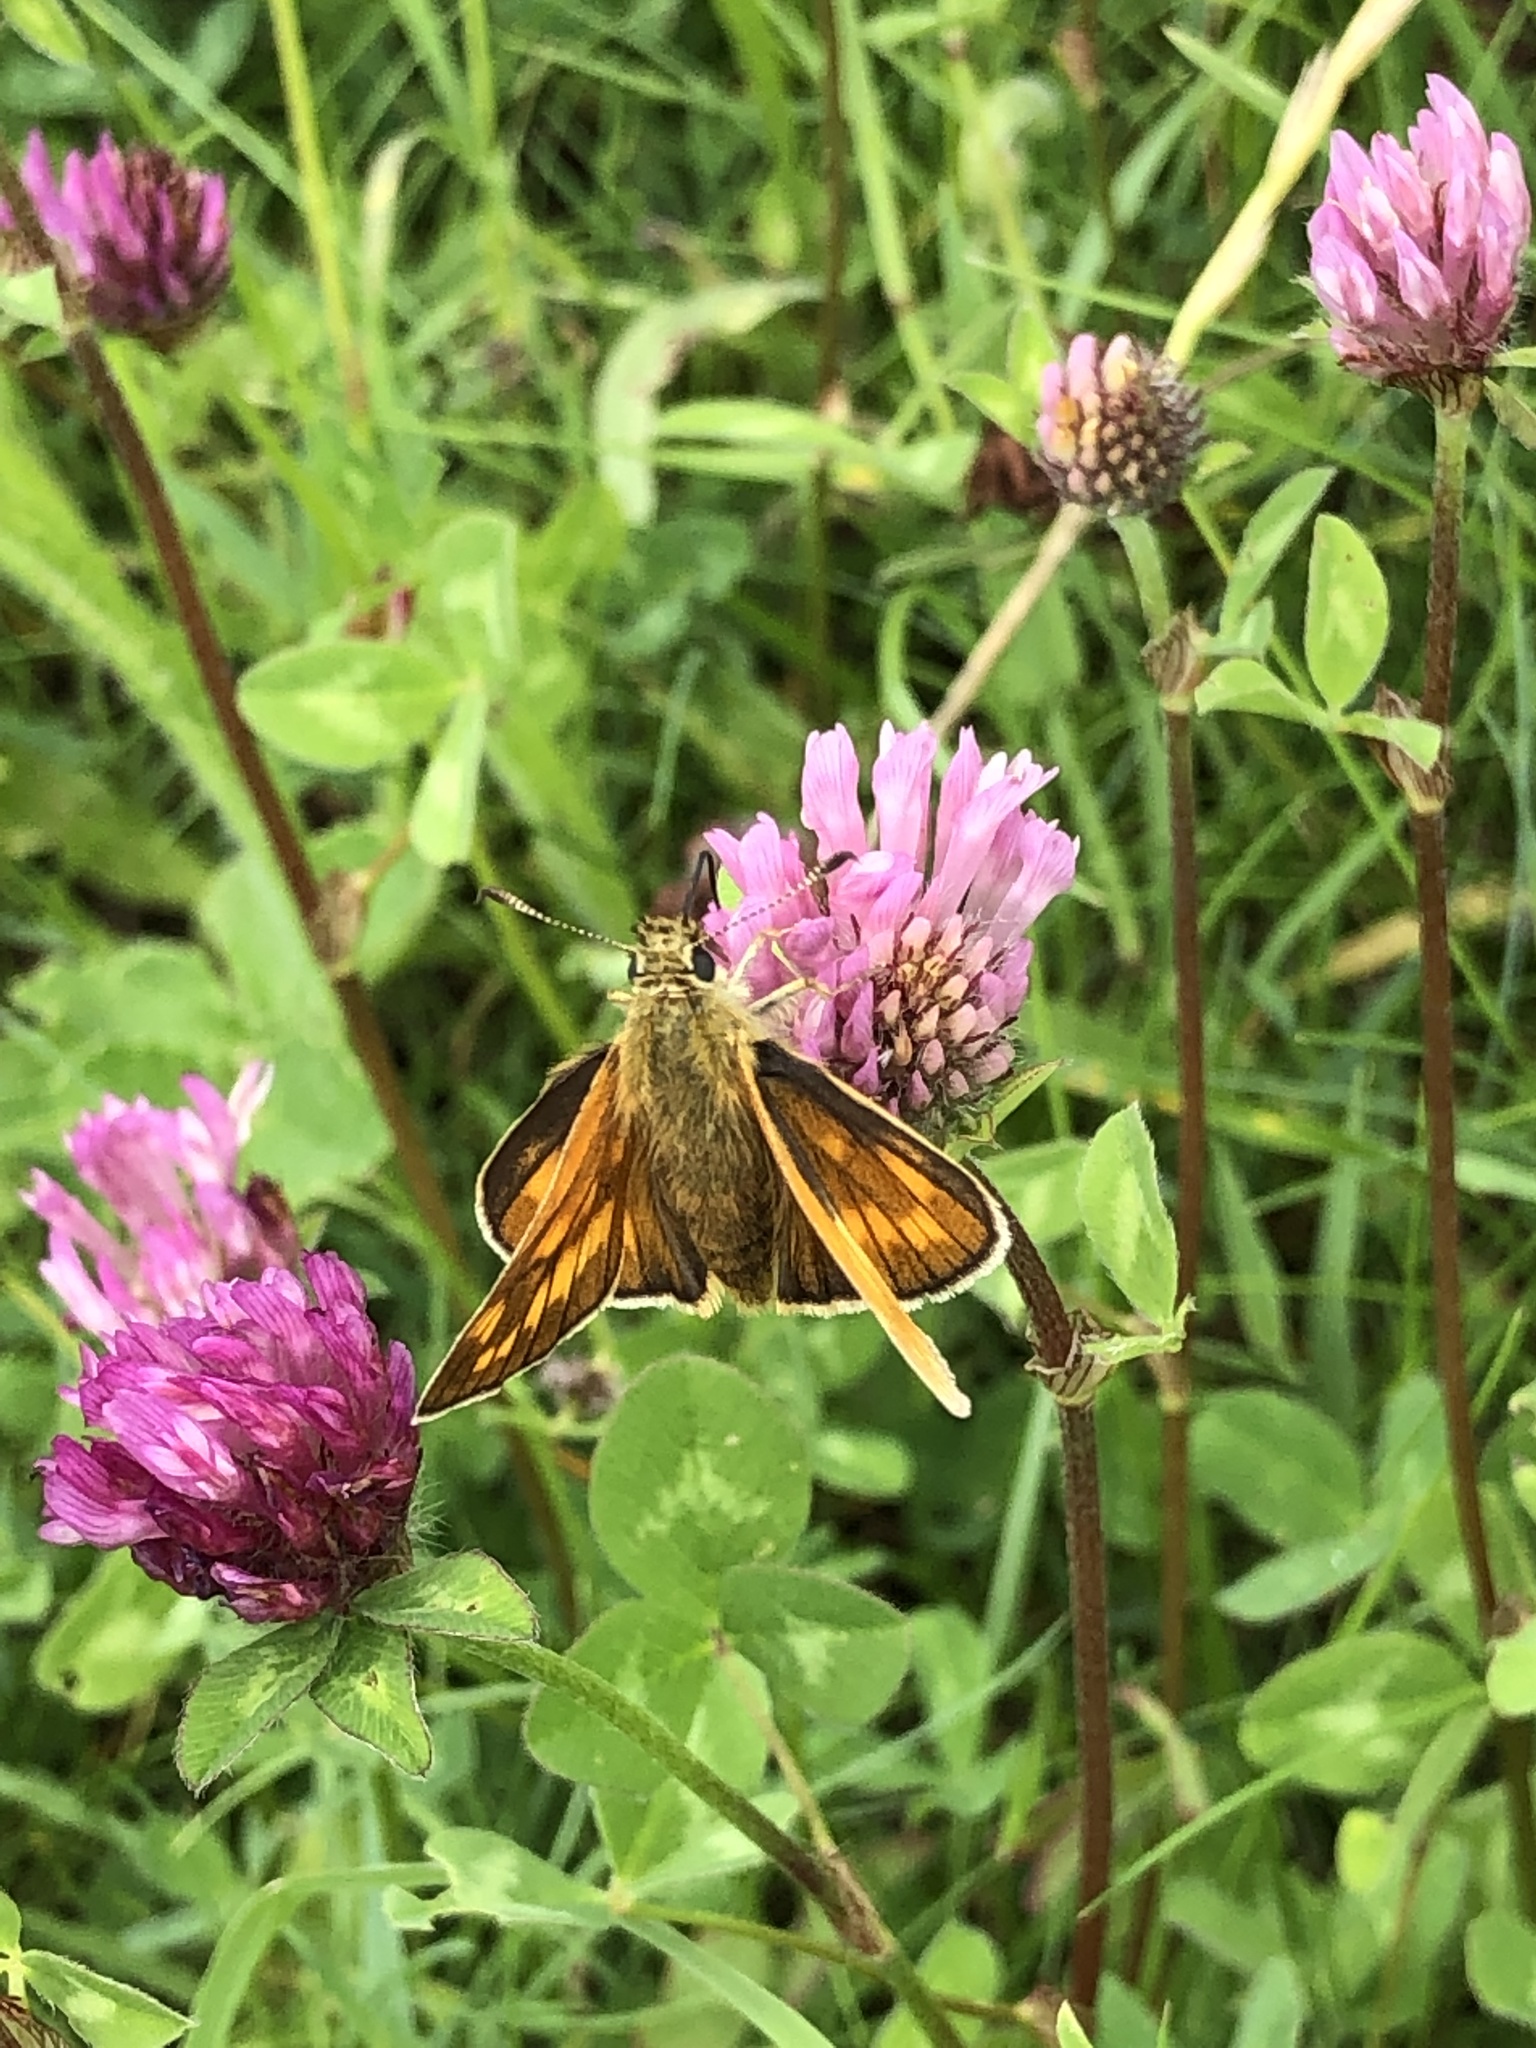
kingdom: Animalia
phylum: Arthropoda
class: Insecta
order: Lepidoptera
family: Hesperiidae
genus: Ochlodes
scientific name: Ochlodes venata
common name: Large skipper
